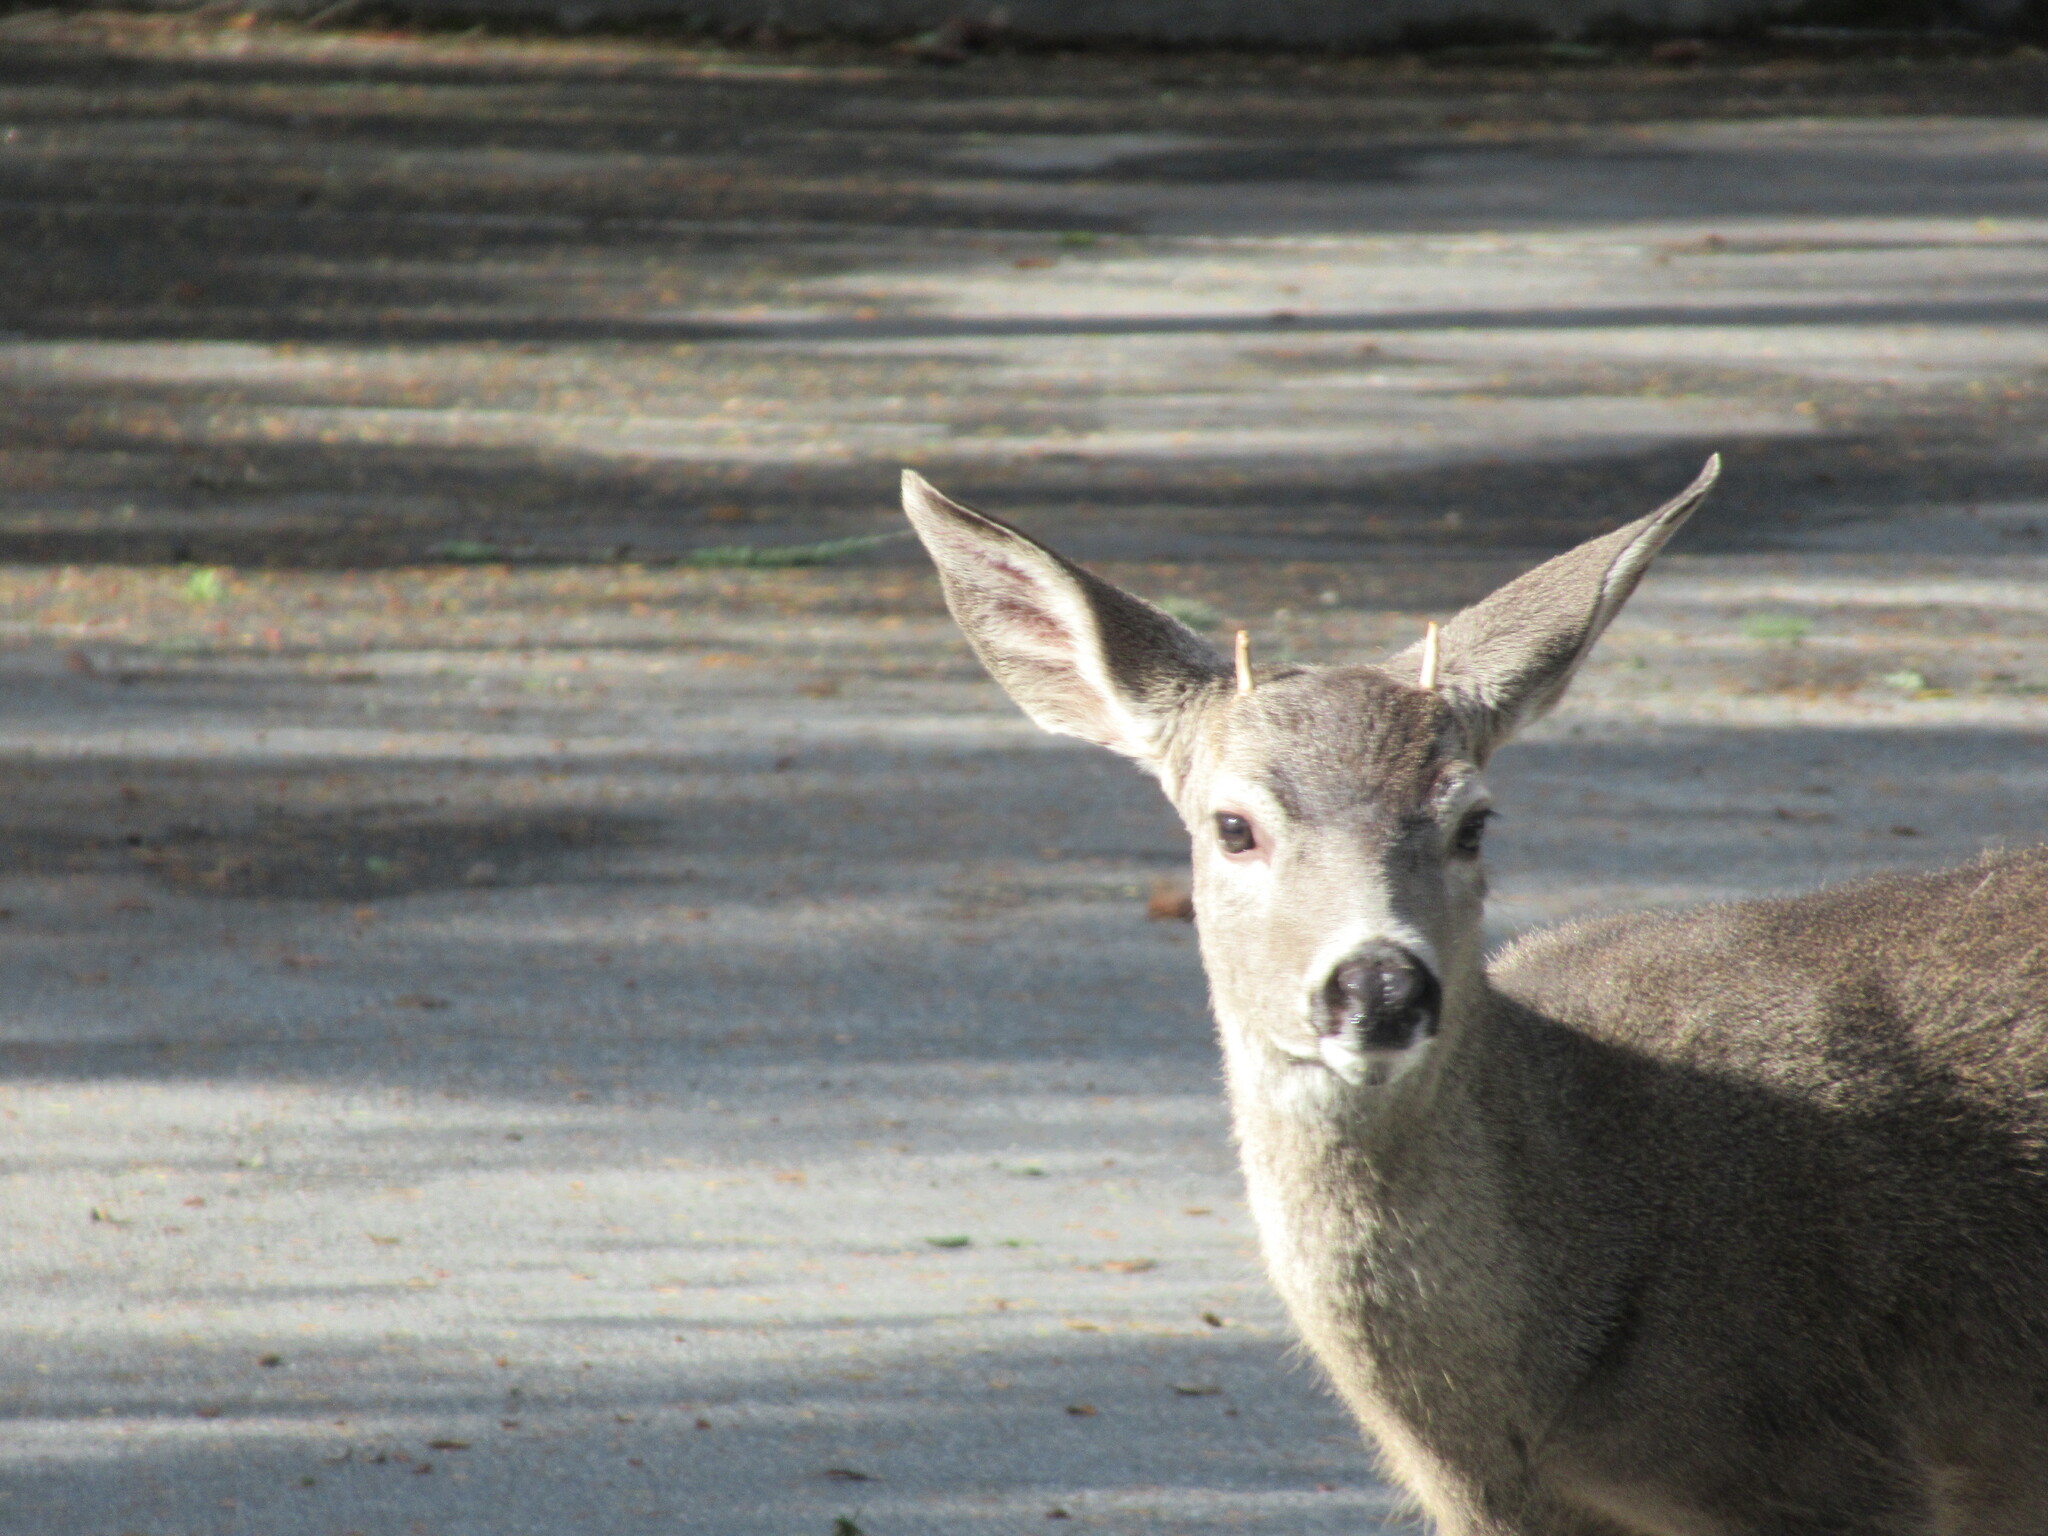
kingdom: Animalia
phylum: Chordata
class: Mammalia
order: Artiodactyla
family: Cervidae
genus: Odocoileus
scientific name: Odocoileus hemionus
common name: Mule deer
